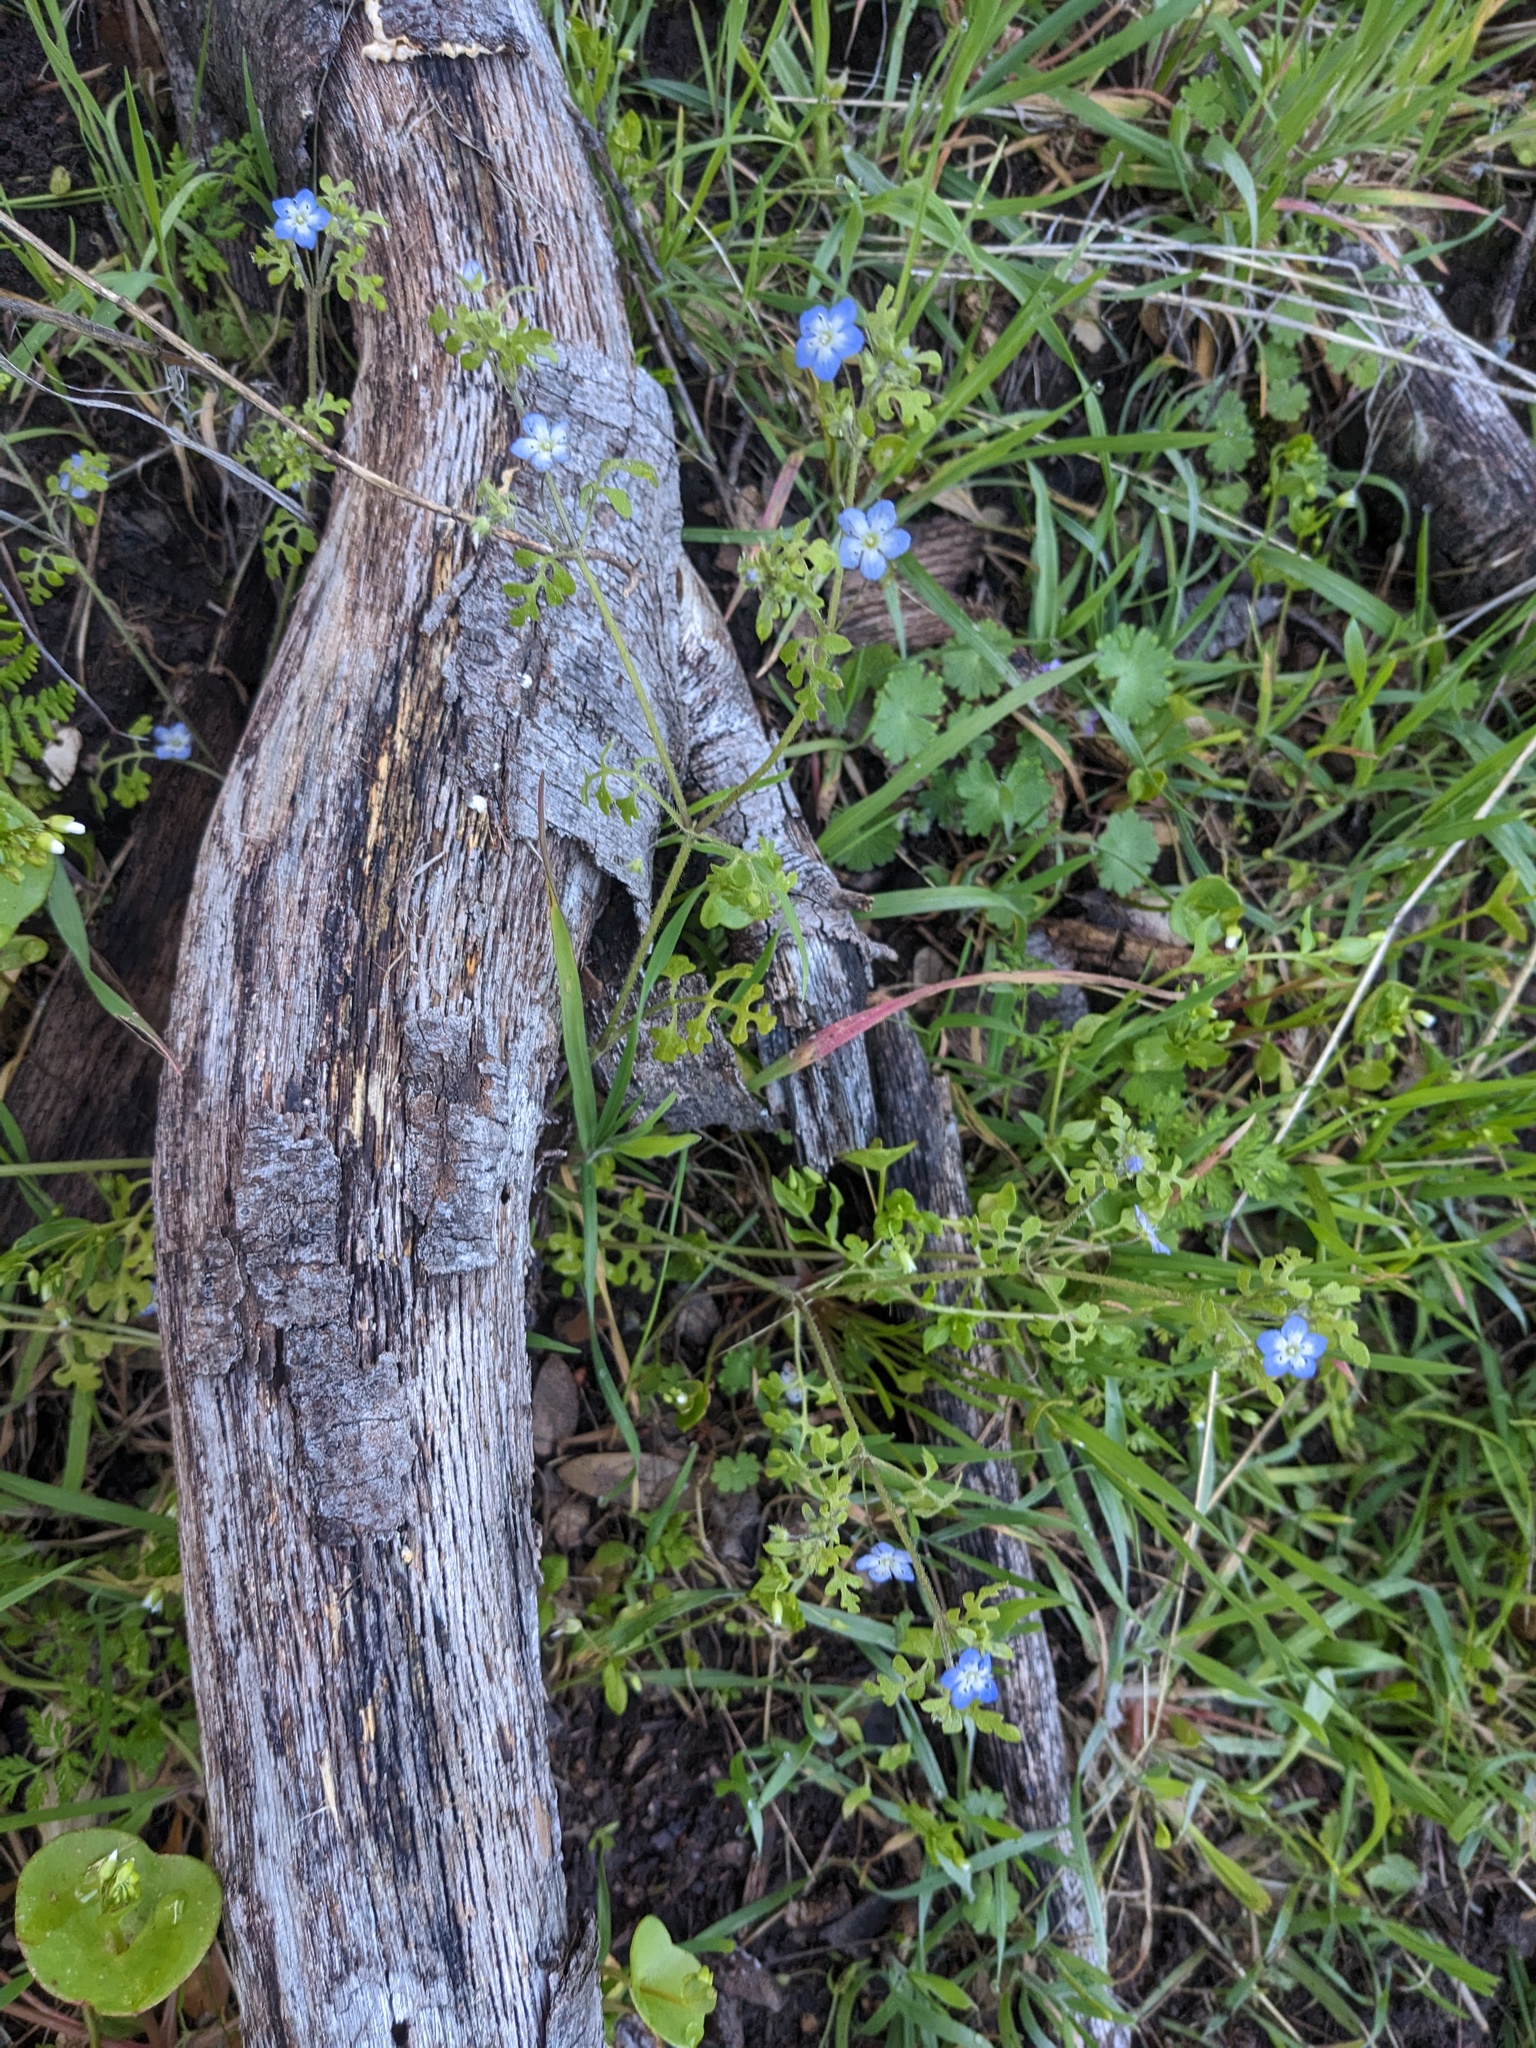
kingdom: Plantae
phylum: Tracheophyta
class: Magnoliopsida
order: Boraginales
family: Hydrophyllaceae
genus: Nemophila
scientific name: Nemophila pulchella
